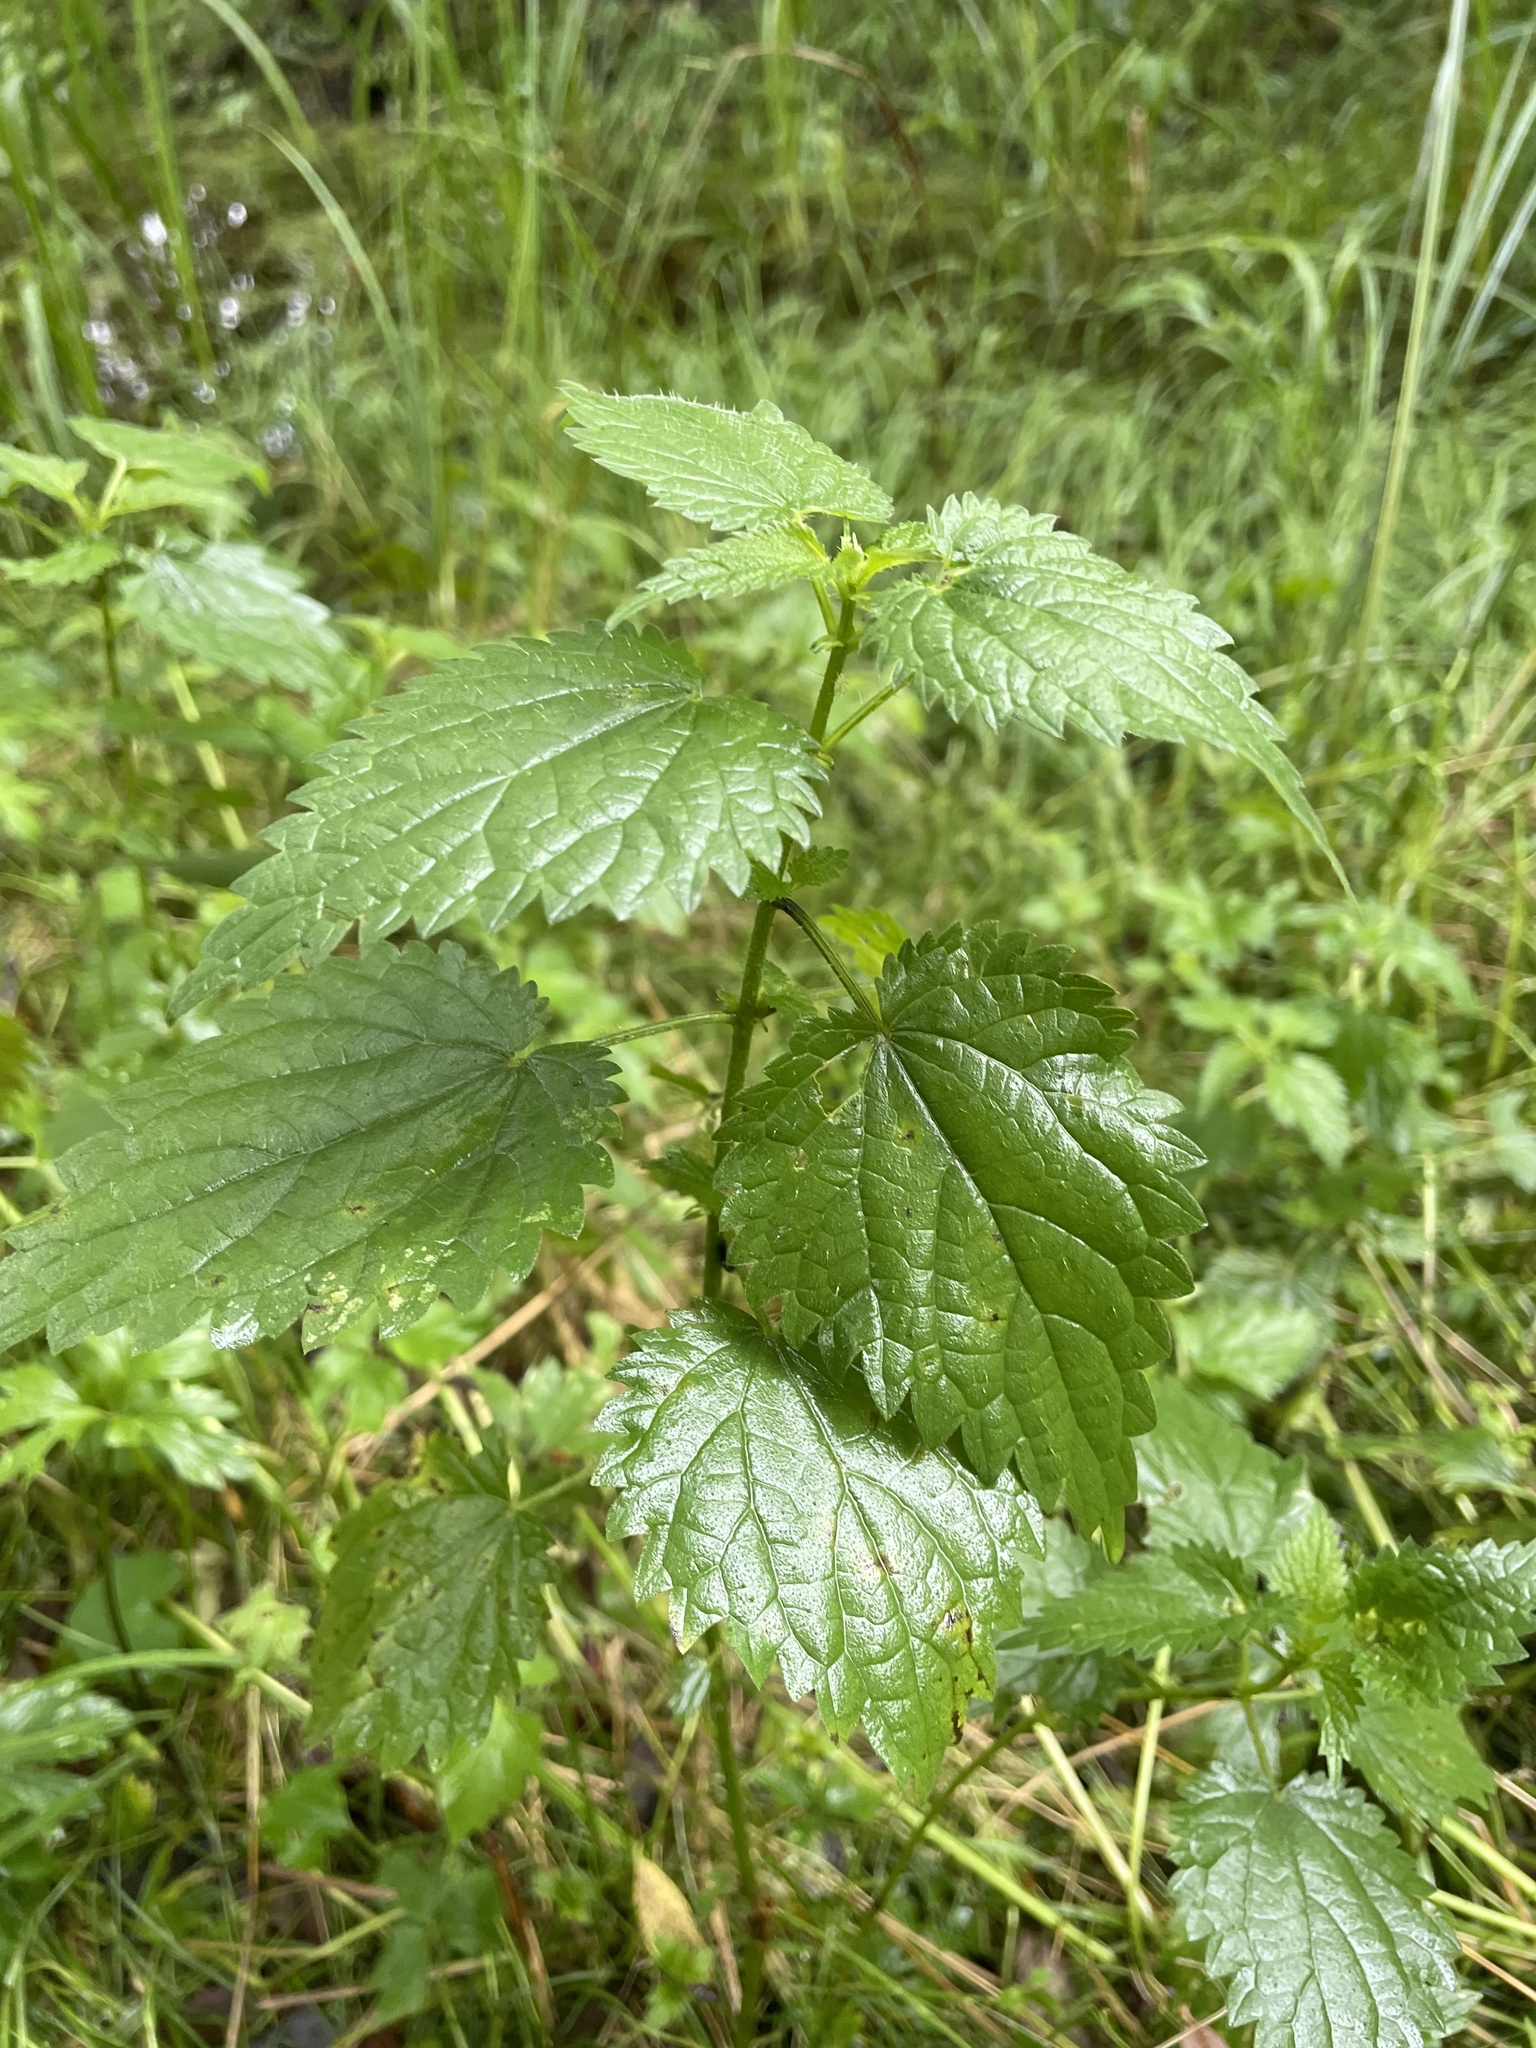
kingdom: Plantae
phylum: Tracheophyta
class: Magnoliopsida
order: Rosales
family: Urticaceae
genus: Urtica
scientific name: Urtica dioica
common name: Common nettle
